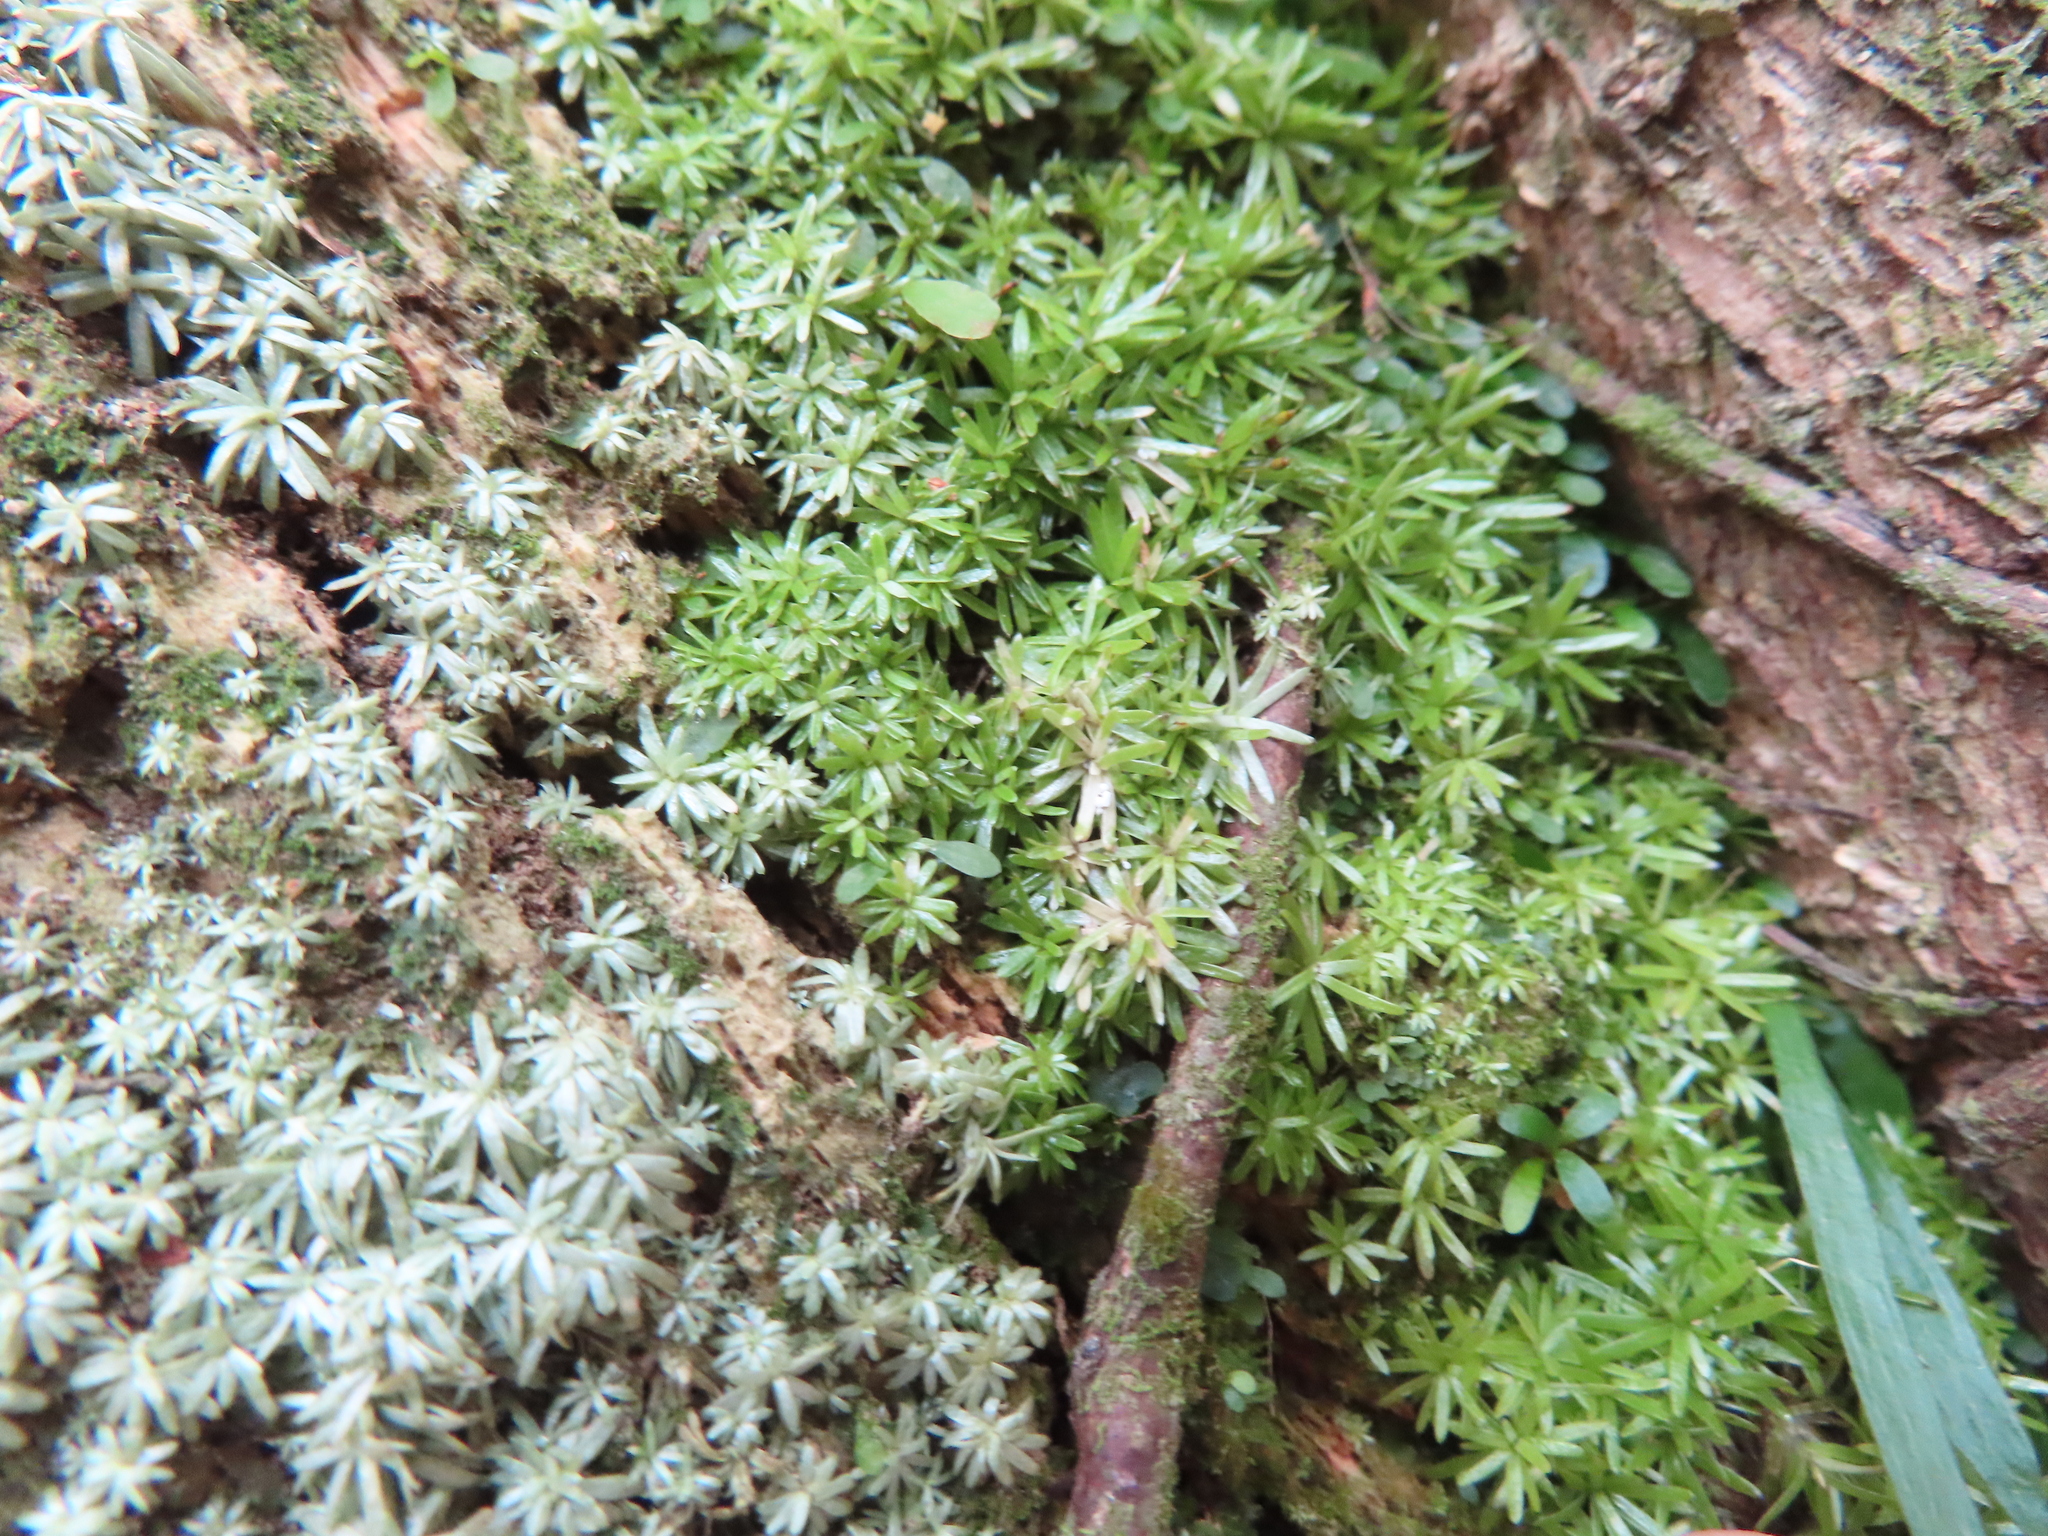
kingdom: Plantae
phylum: Bryophyta
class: Bryopsida
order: Dicranales
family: Octoblepharaceae
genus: Octoblepharum
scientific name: Octoblepharum albidum
